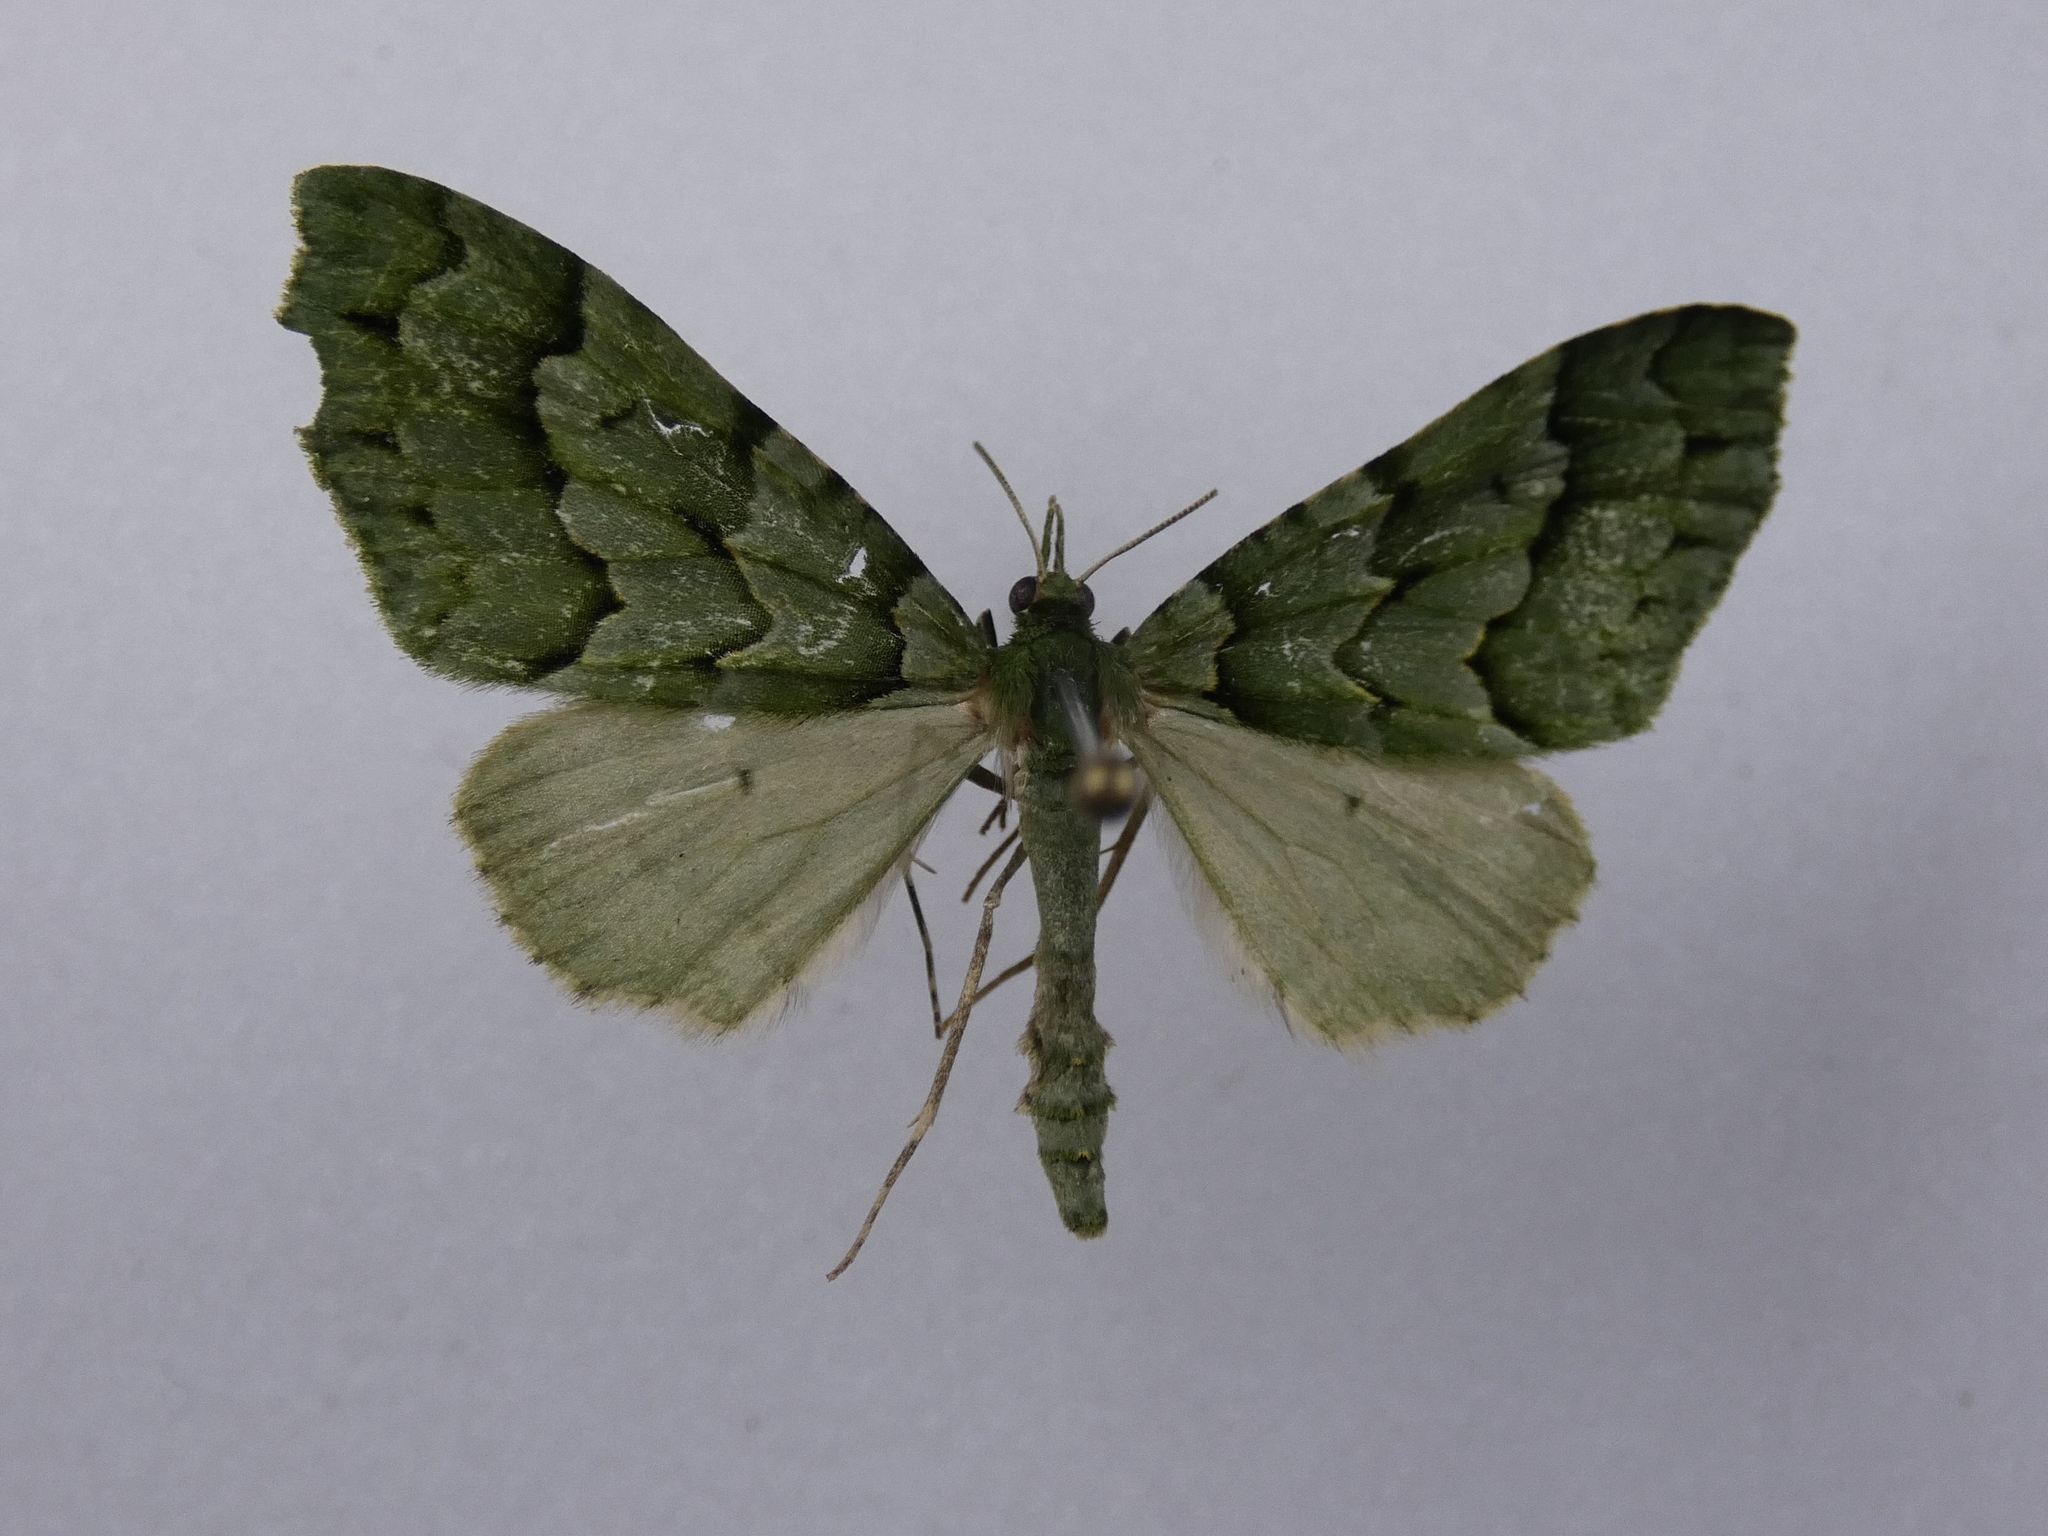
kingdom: Animalia
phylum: Arthropoda
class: Insecta
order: Lepidoptera
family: Geometridae
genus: Tatosoma
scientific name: Tatosoma lestevata
